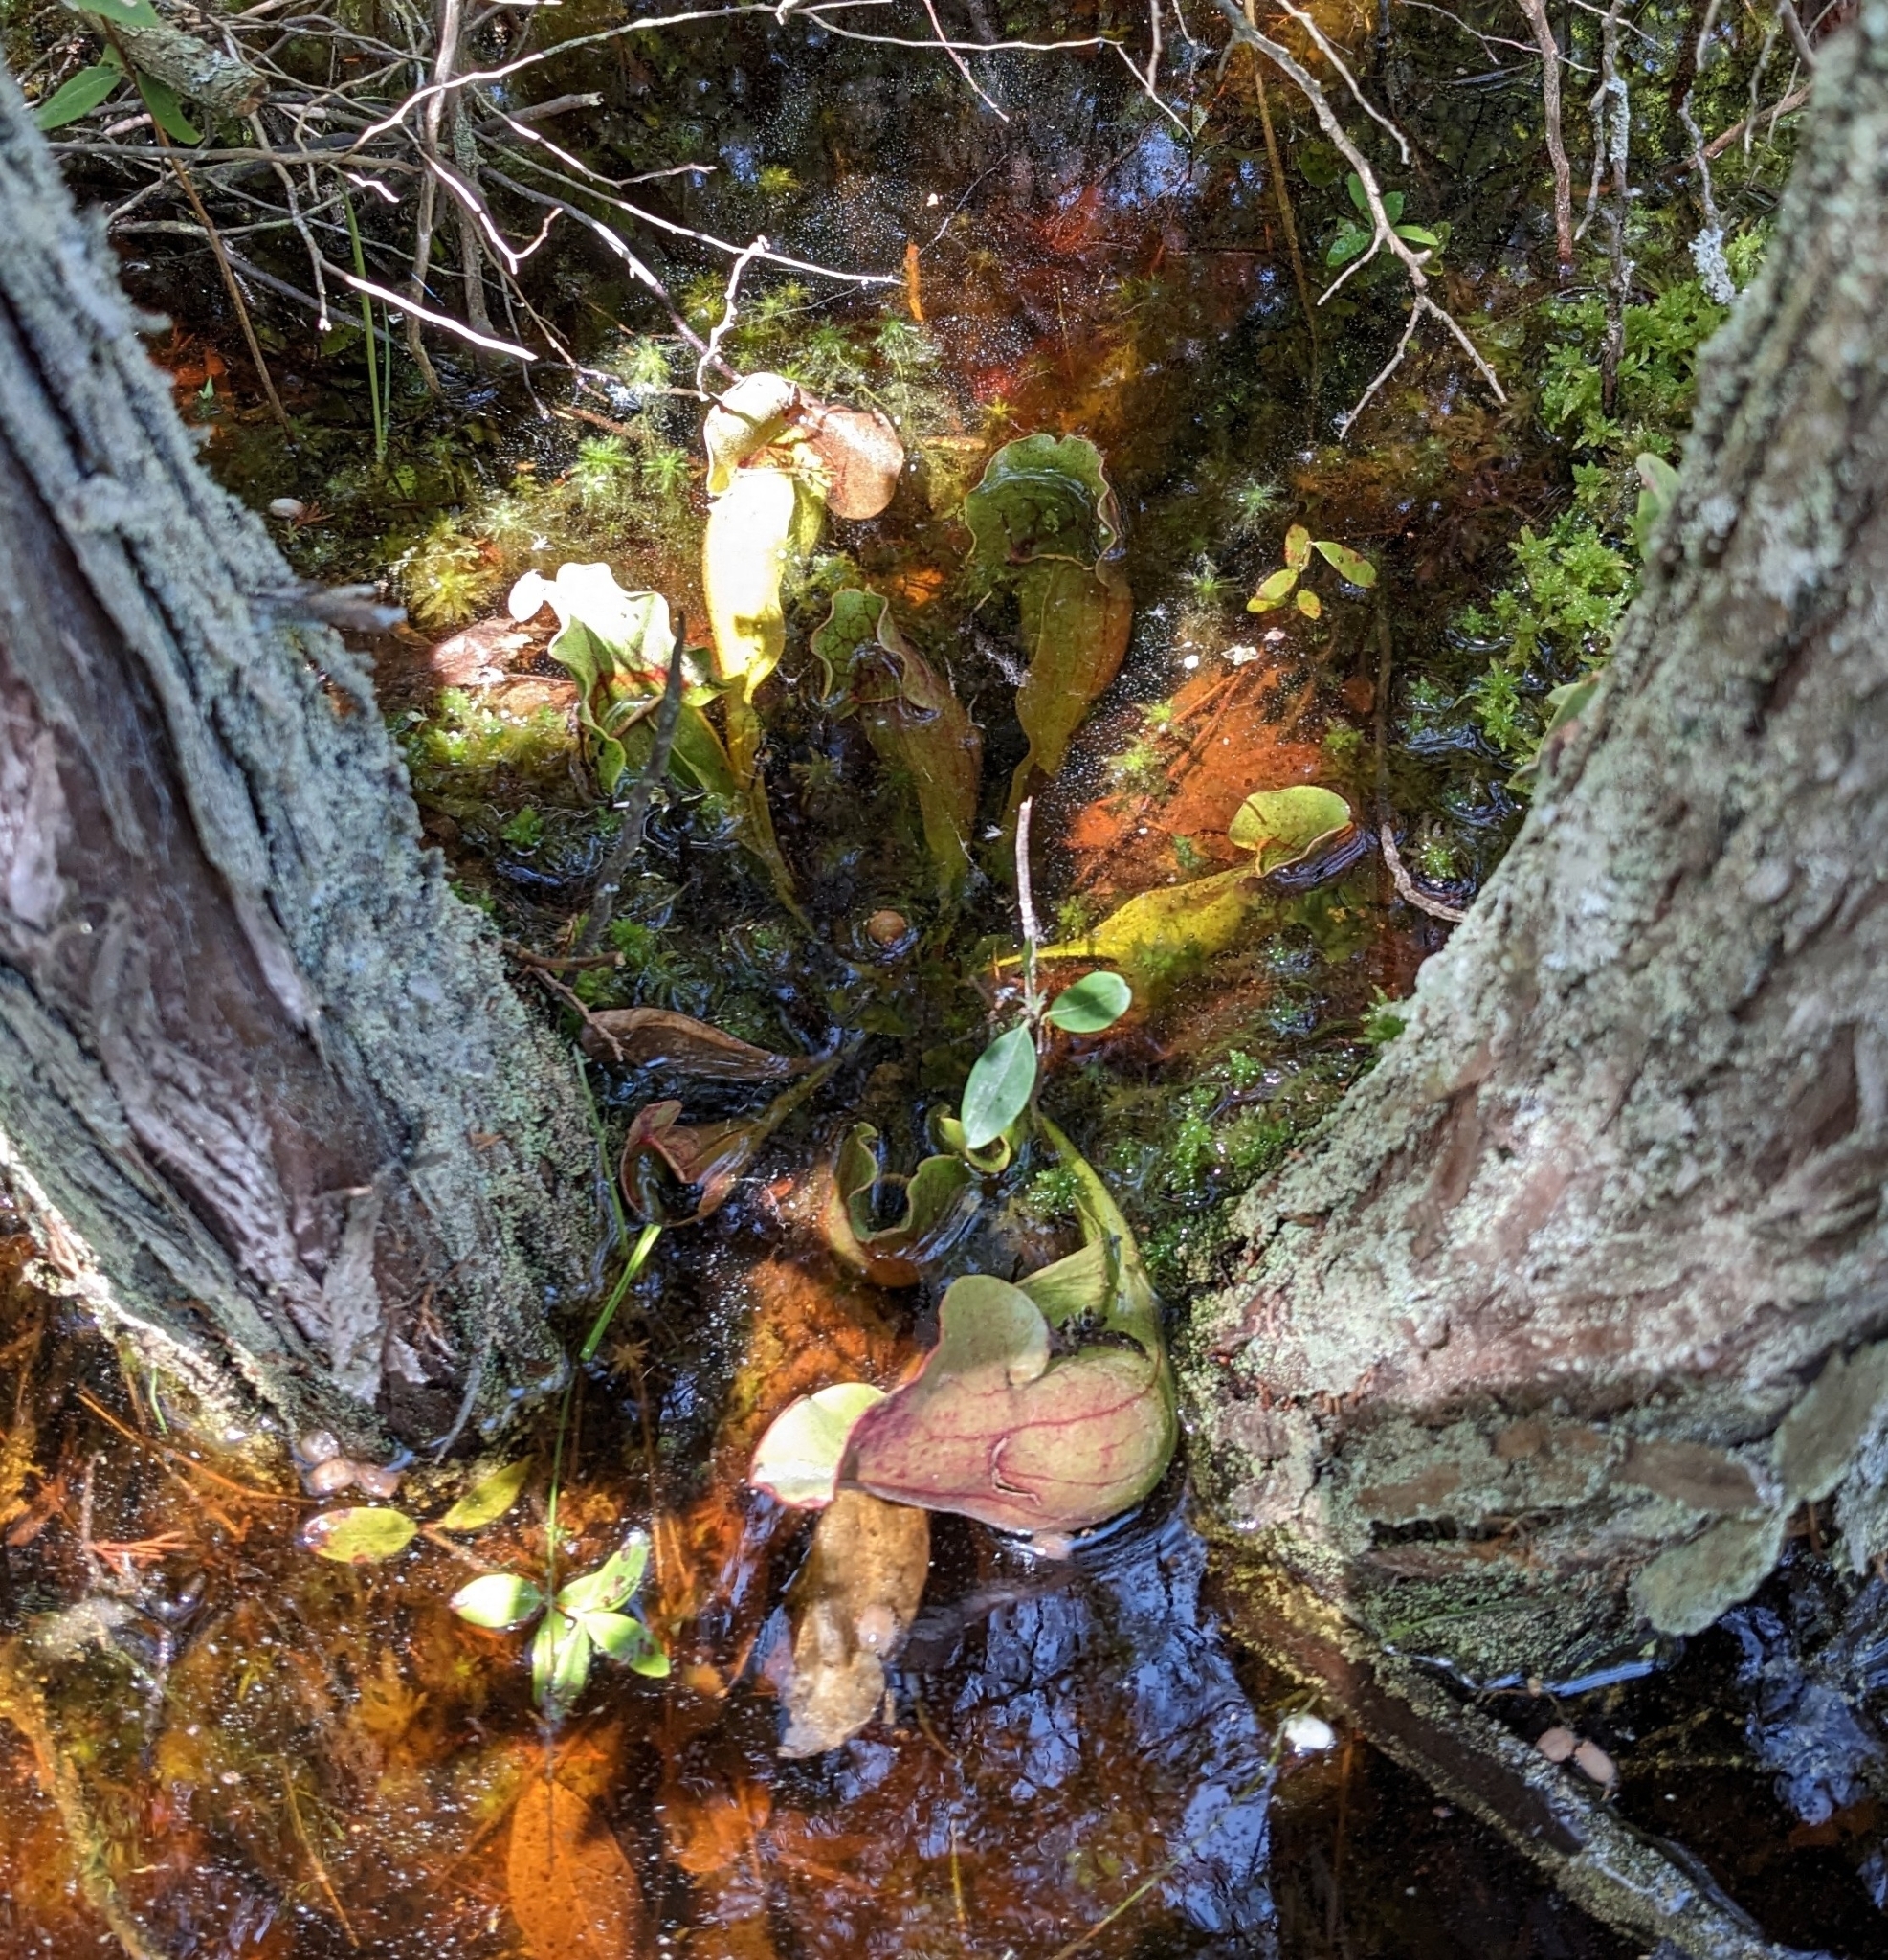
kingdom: Plantae
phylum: Tracheophyta
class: Magnoliopsida
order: Ericales
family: Sarraceniaceae
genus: Sarracenia
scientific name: Sarracenia purpurea
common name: Pitcherplant
